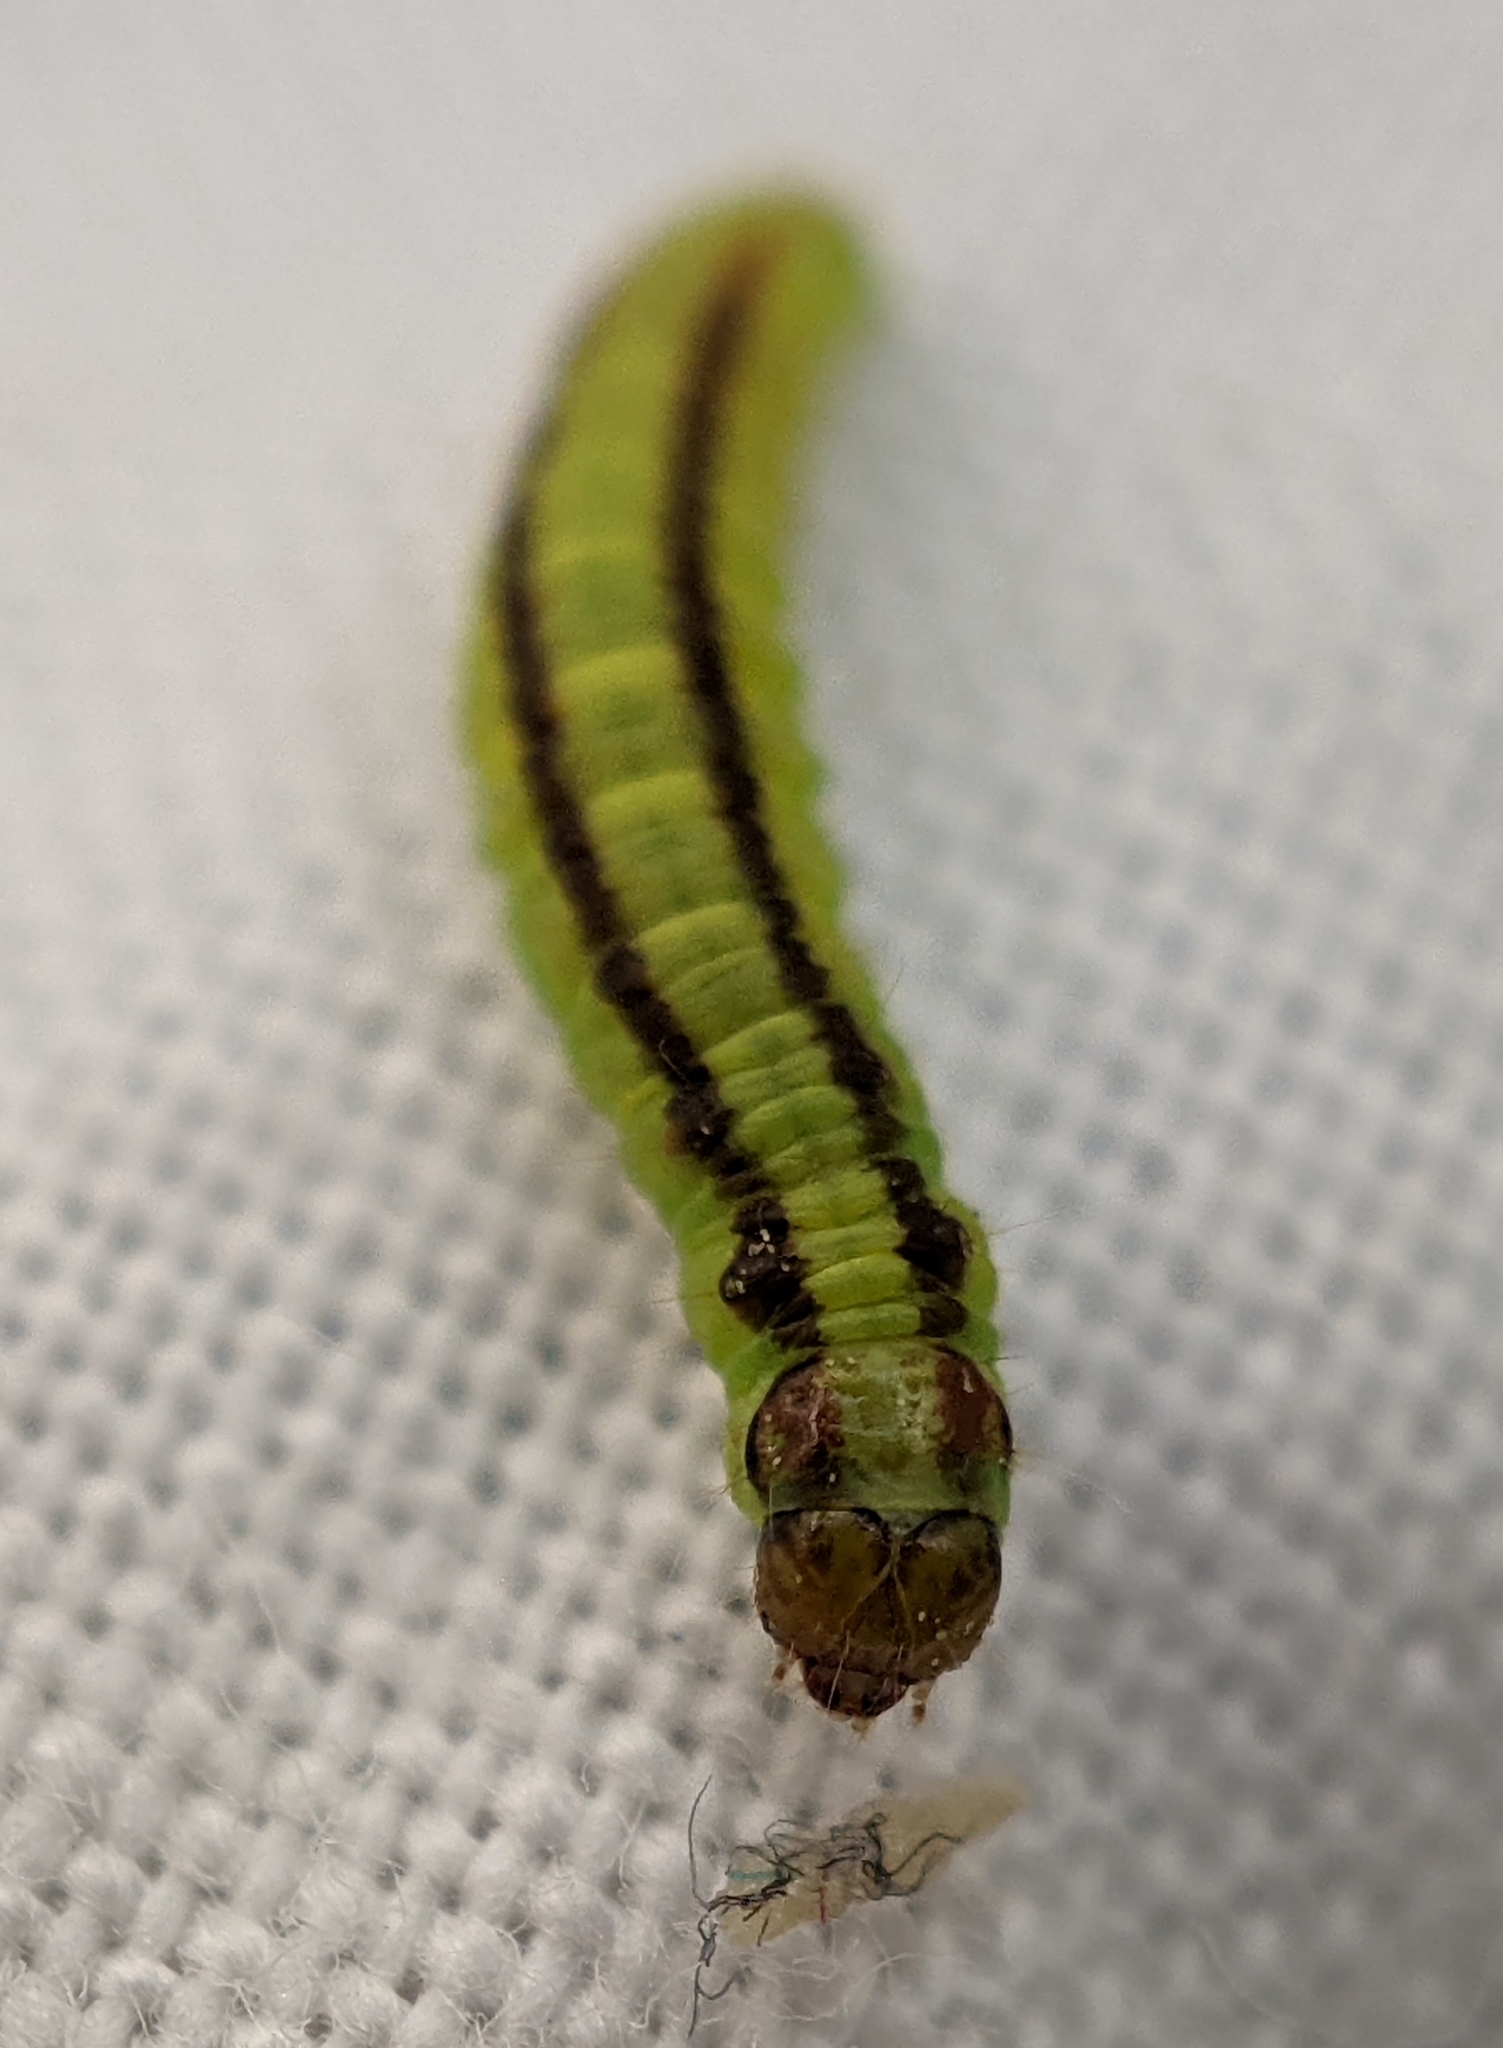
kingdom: Animalia
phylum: Arthropoda
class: Insecta
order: Lepidoptera
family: Pyralidae
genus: Acrobasis
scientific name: Acrobasis advenella
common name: Grey knot-horn
